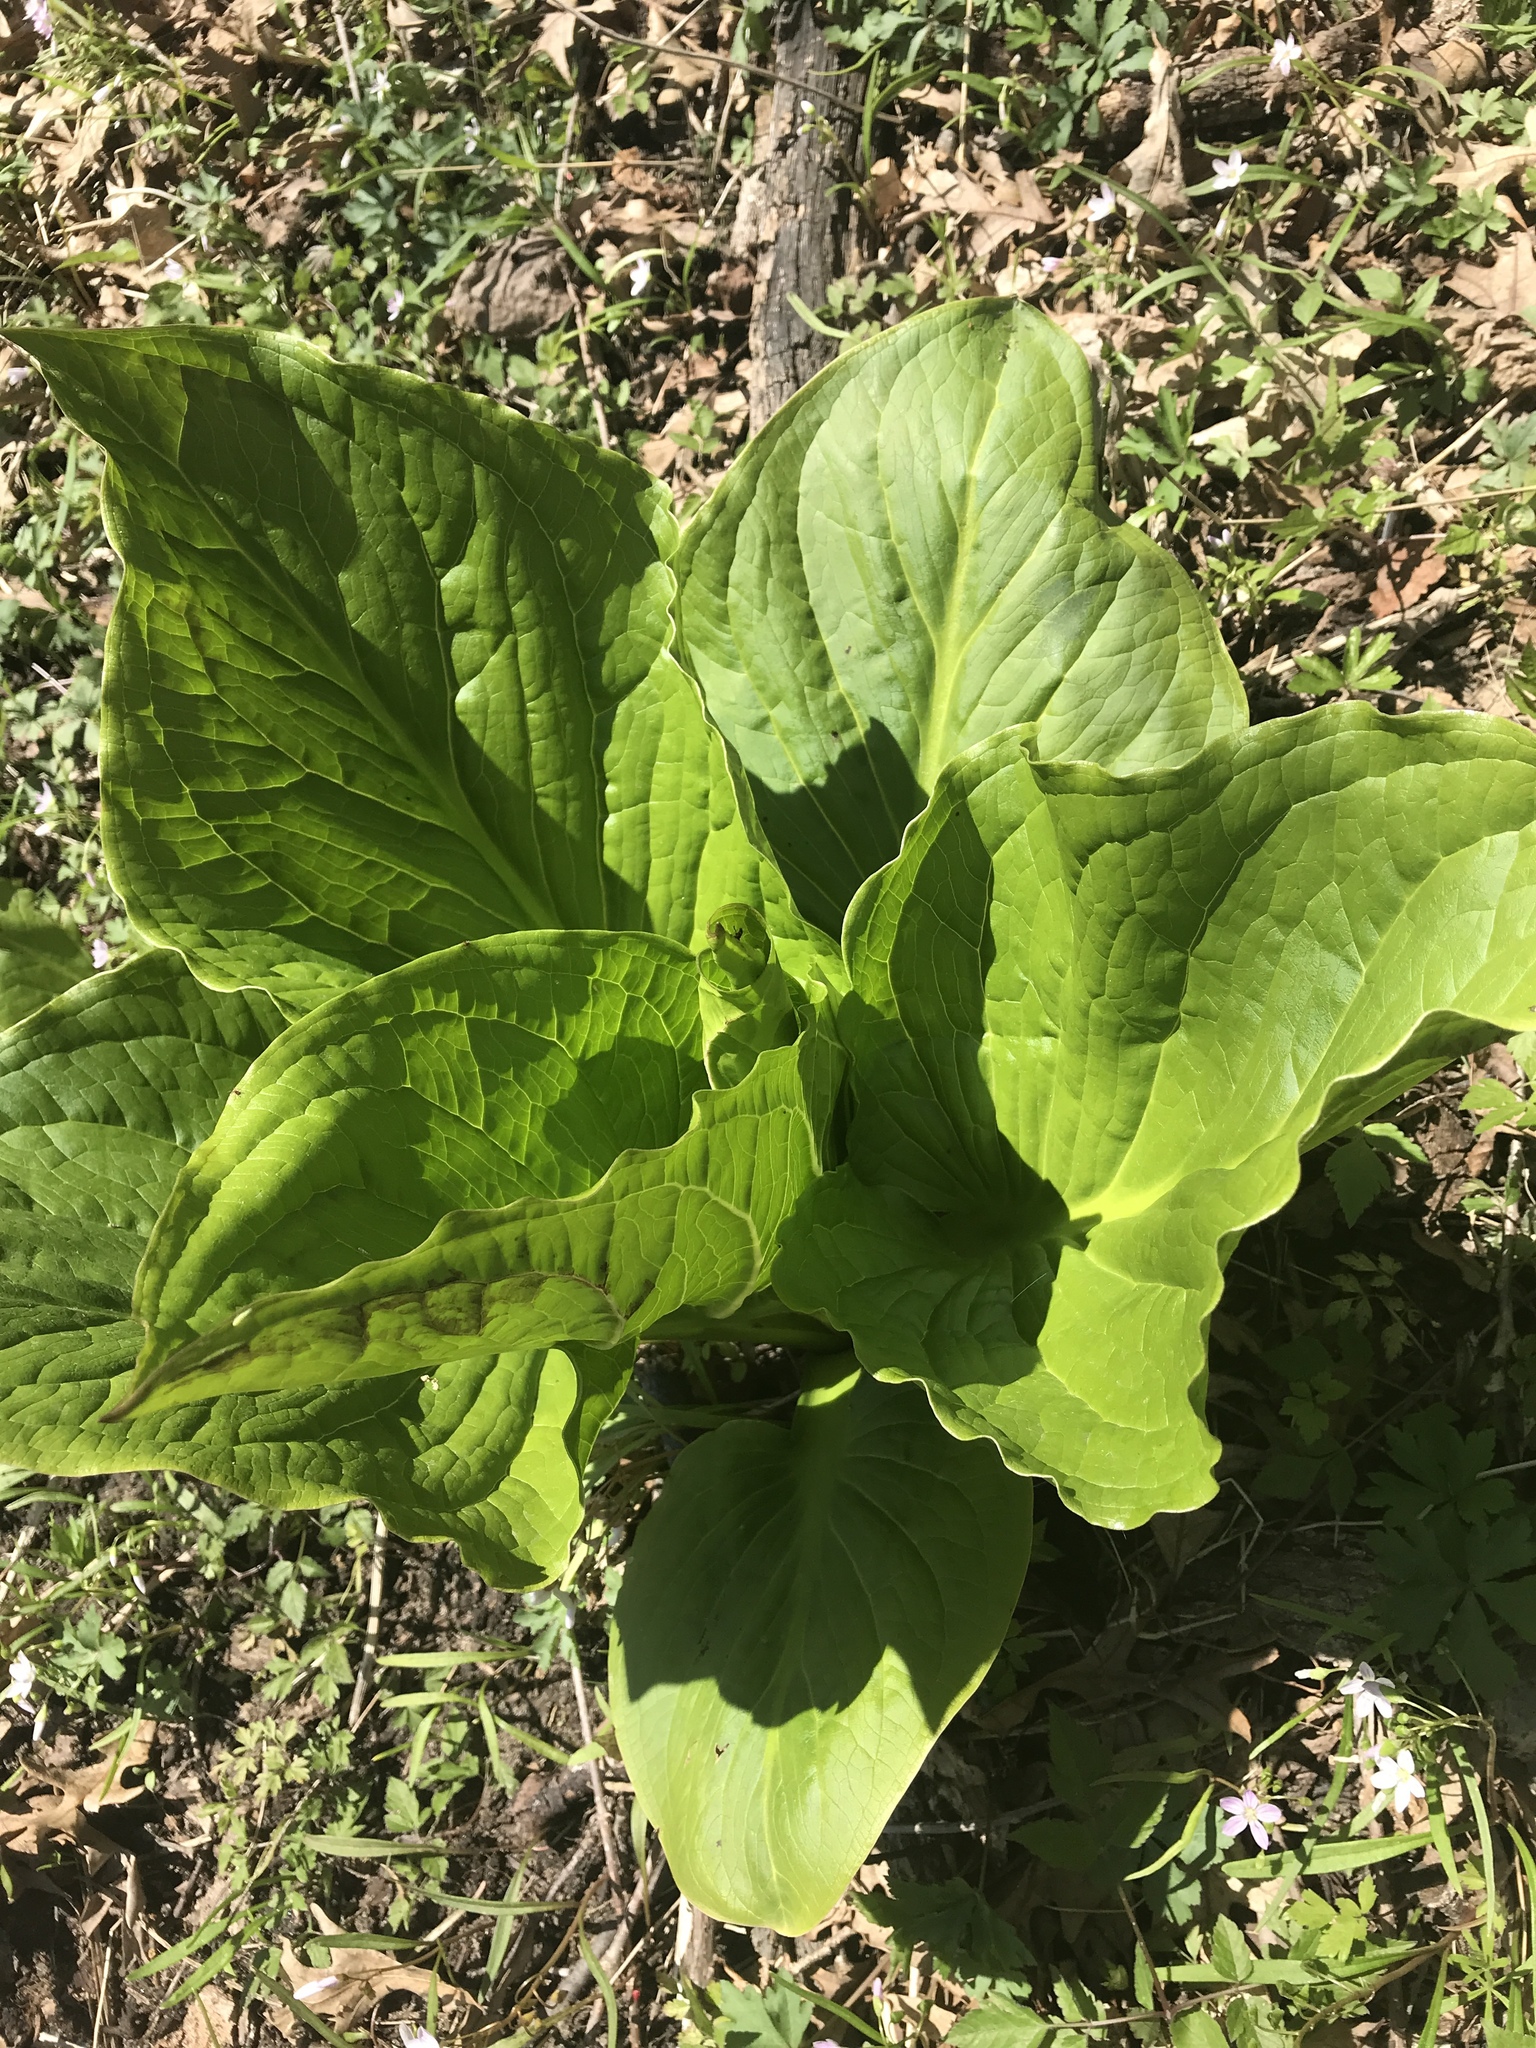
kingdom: Plantae
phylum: Tracheophyta
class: Liliopsida
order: Alismatales
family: Araceae
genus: Symplocarpus
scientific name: Symplocarpus foetidus
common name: Eastern skunk cabbage
